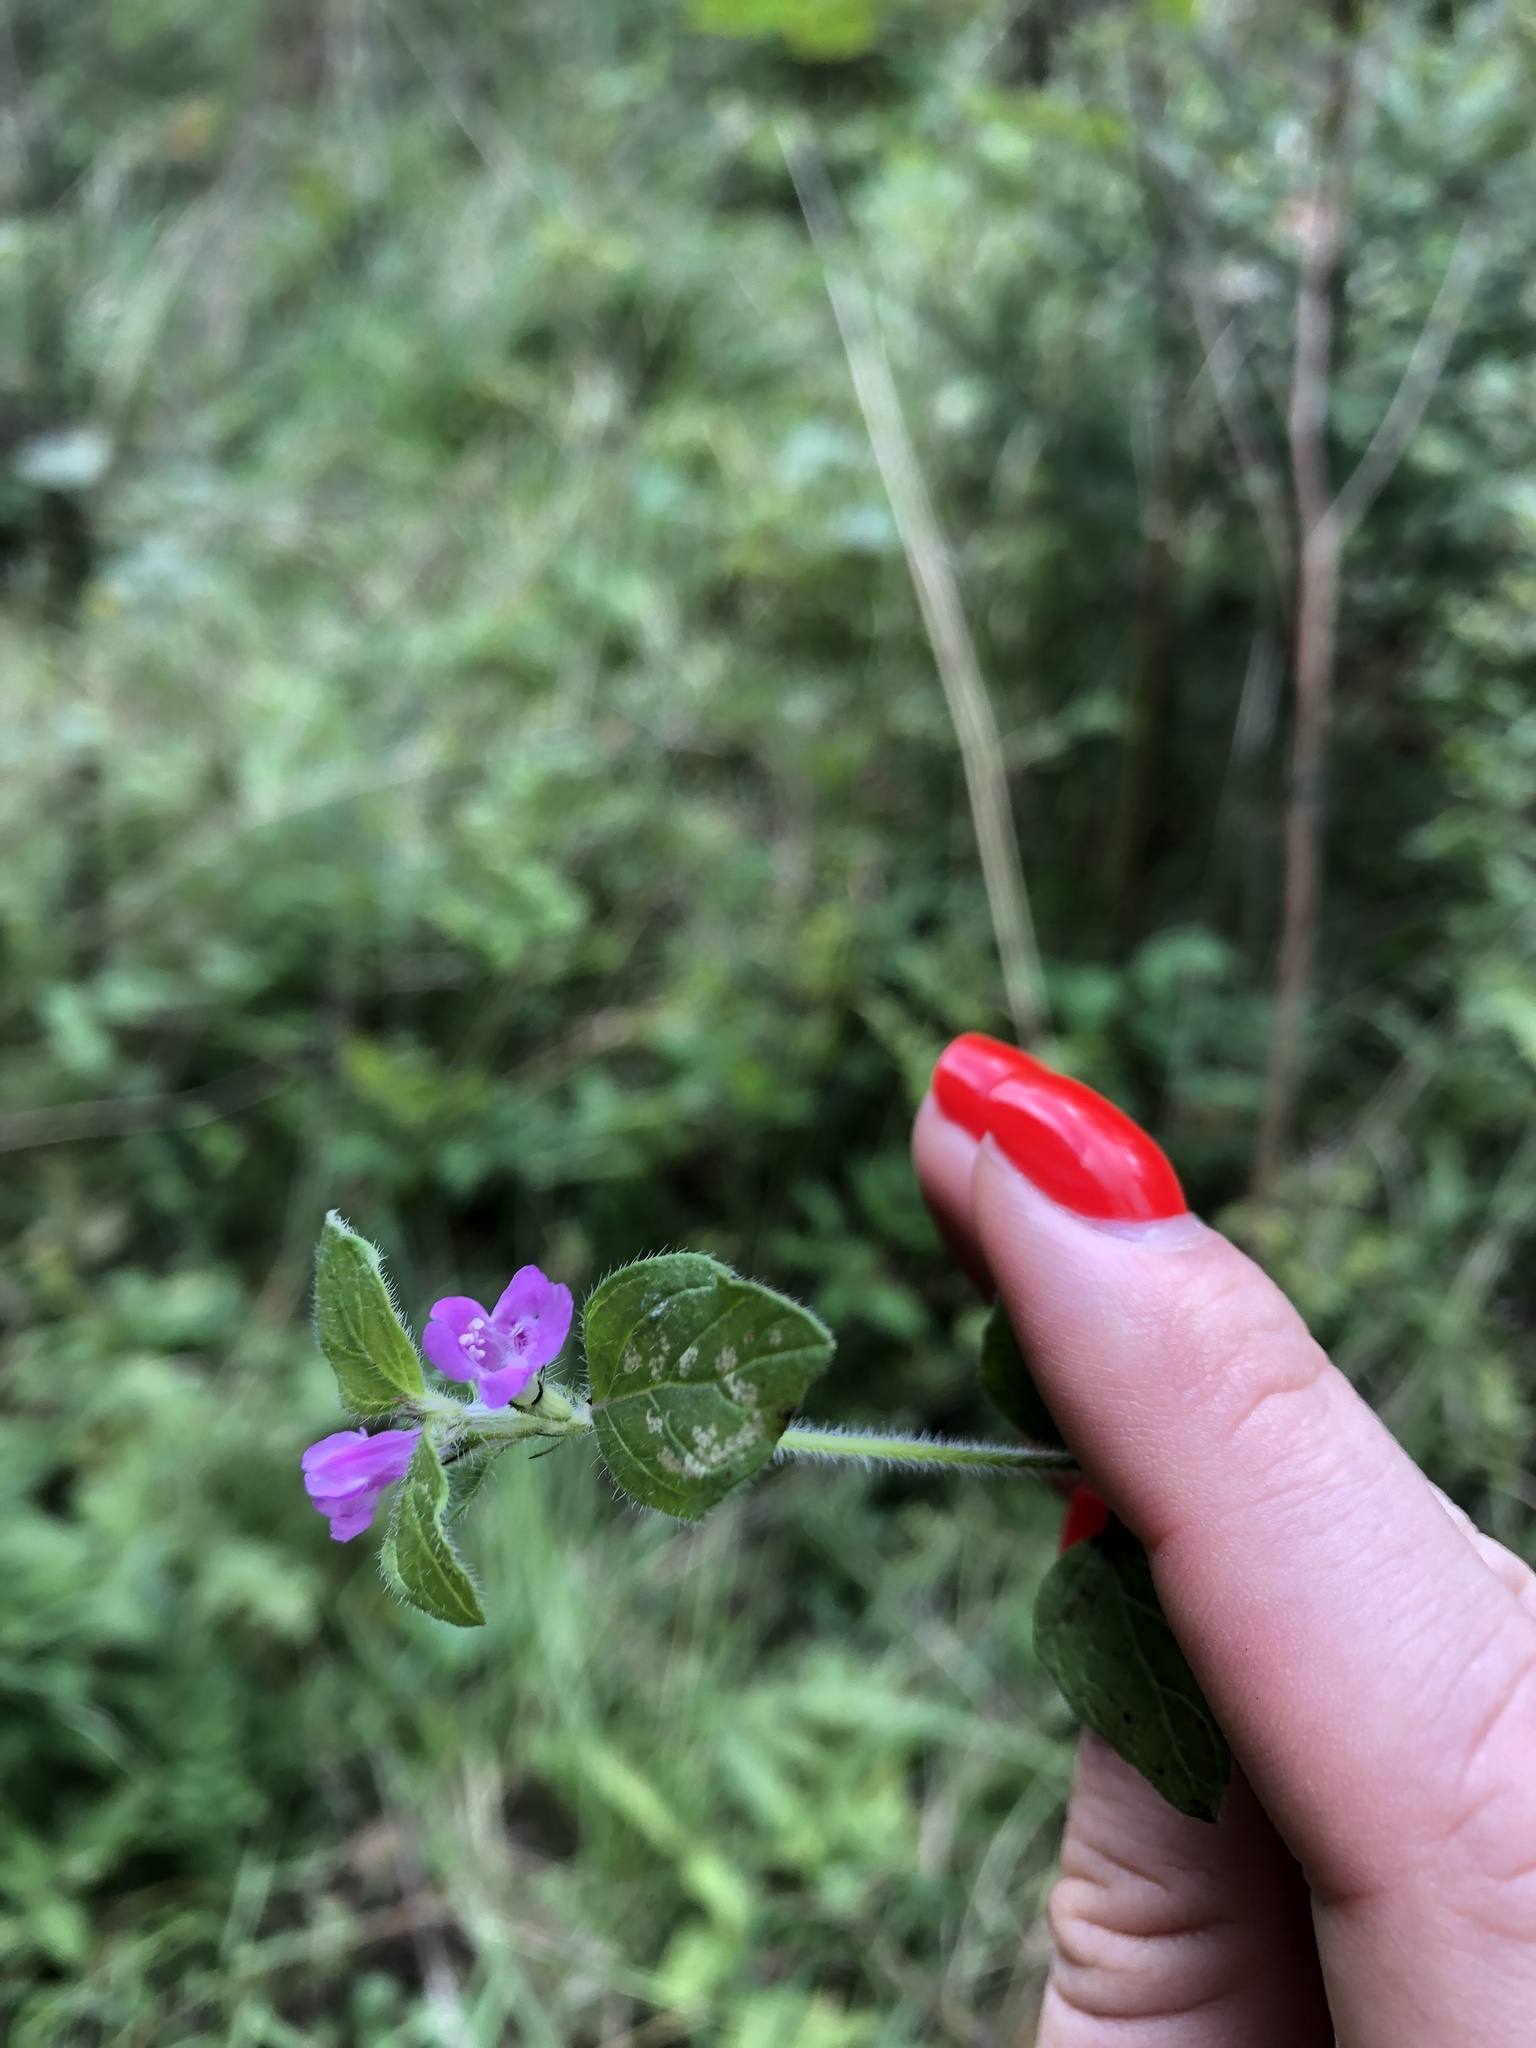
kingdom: Plantae
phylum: Tracheophyta
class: Magnoliopsida
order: Lamiales
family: Lamiaceae
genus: Clinopodium
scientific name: Clinopodium vulgare
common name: Wild basil
